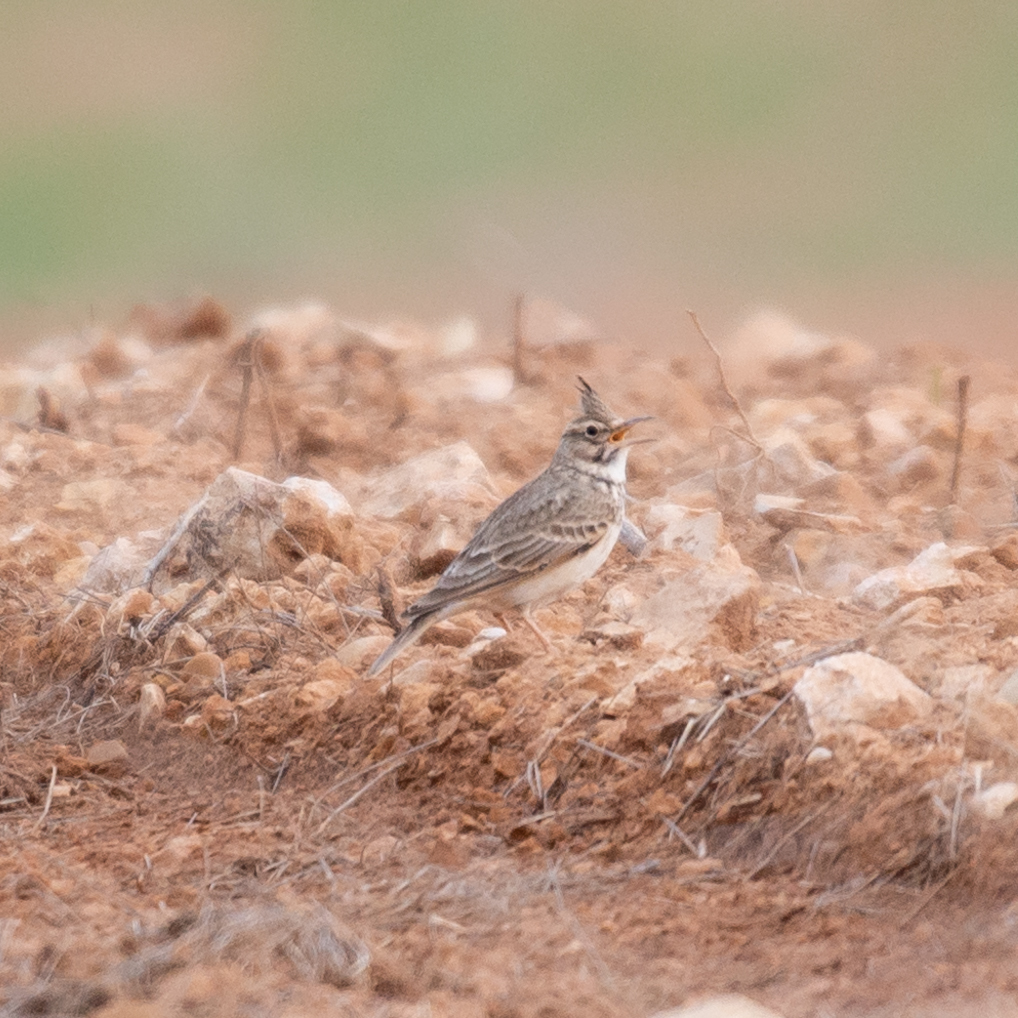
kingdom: Animalia
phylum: Chordata
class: Aves
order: Passeriformes
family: Alaudidae
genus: Galerida
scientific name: Galerida cristata
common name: Crested lark
